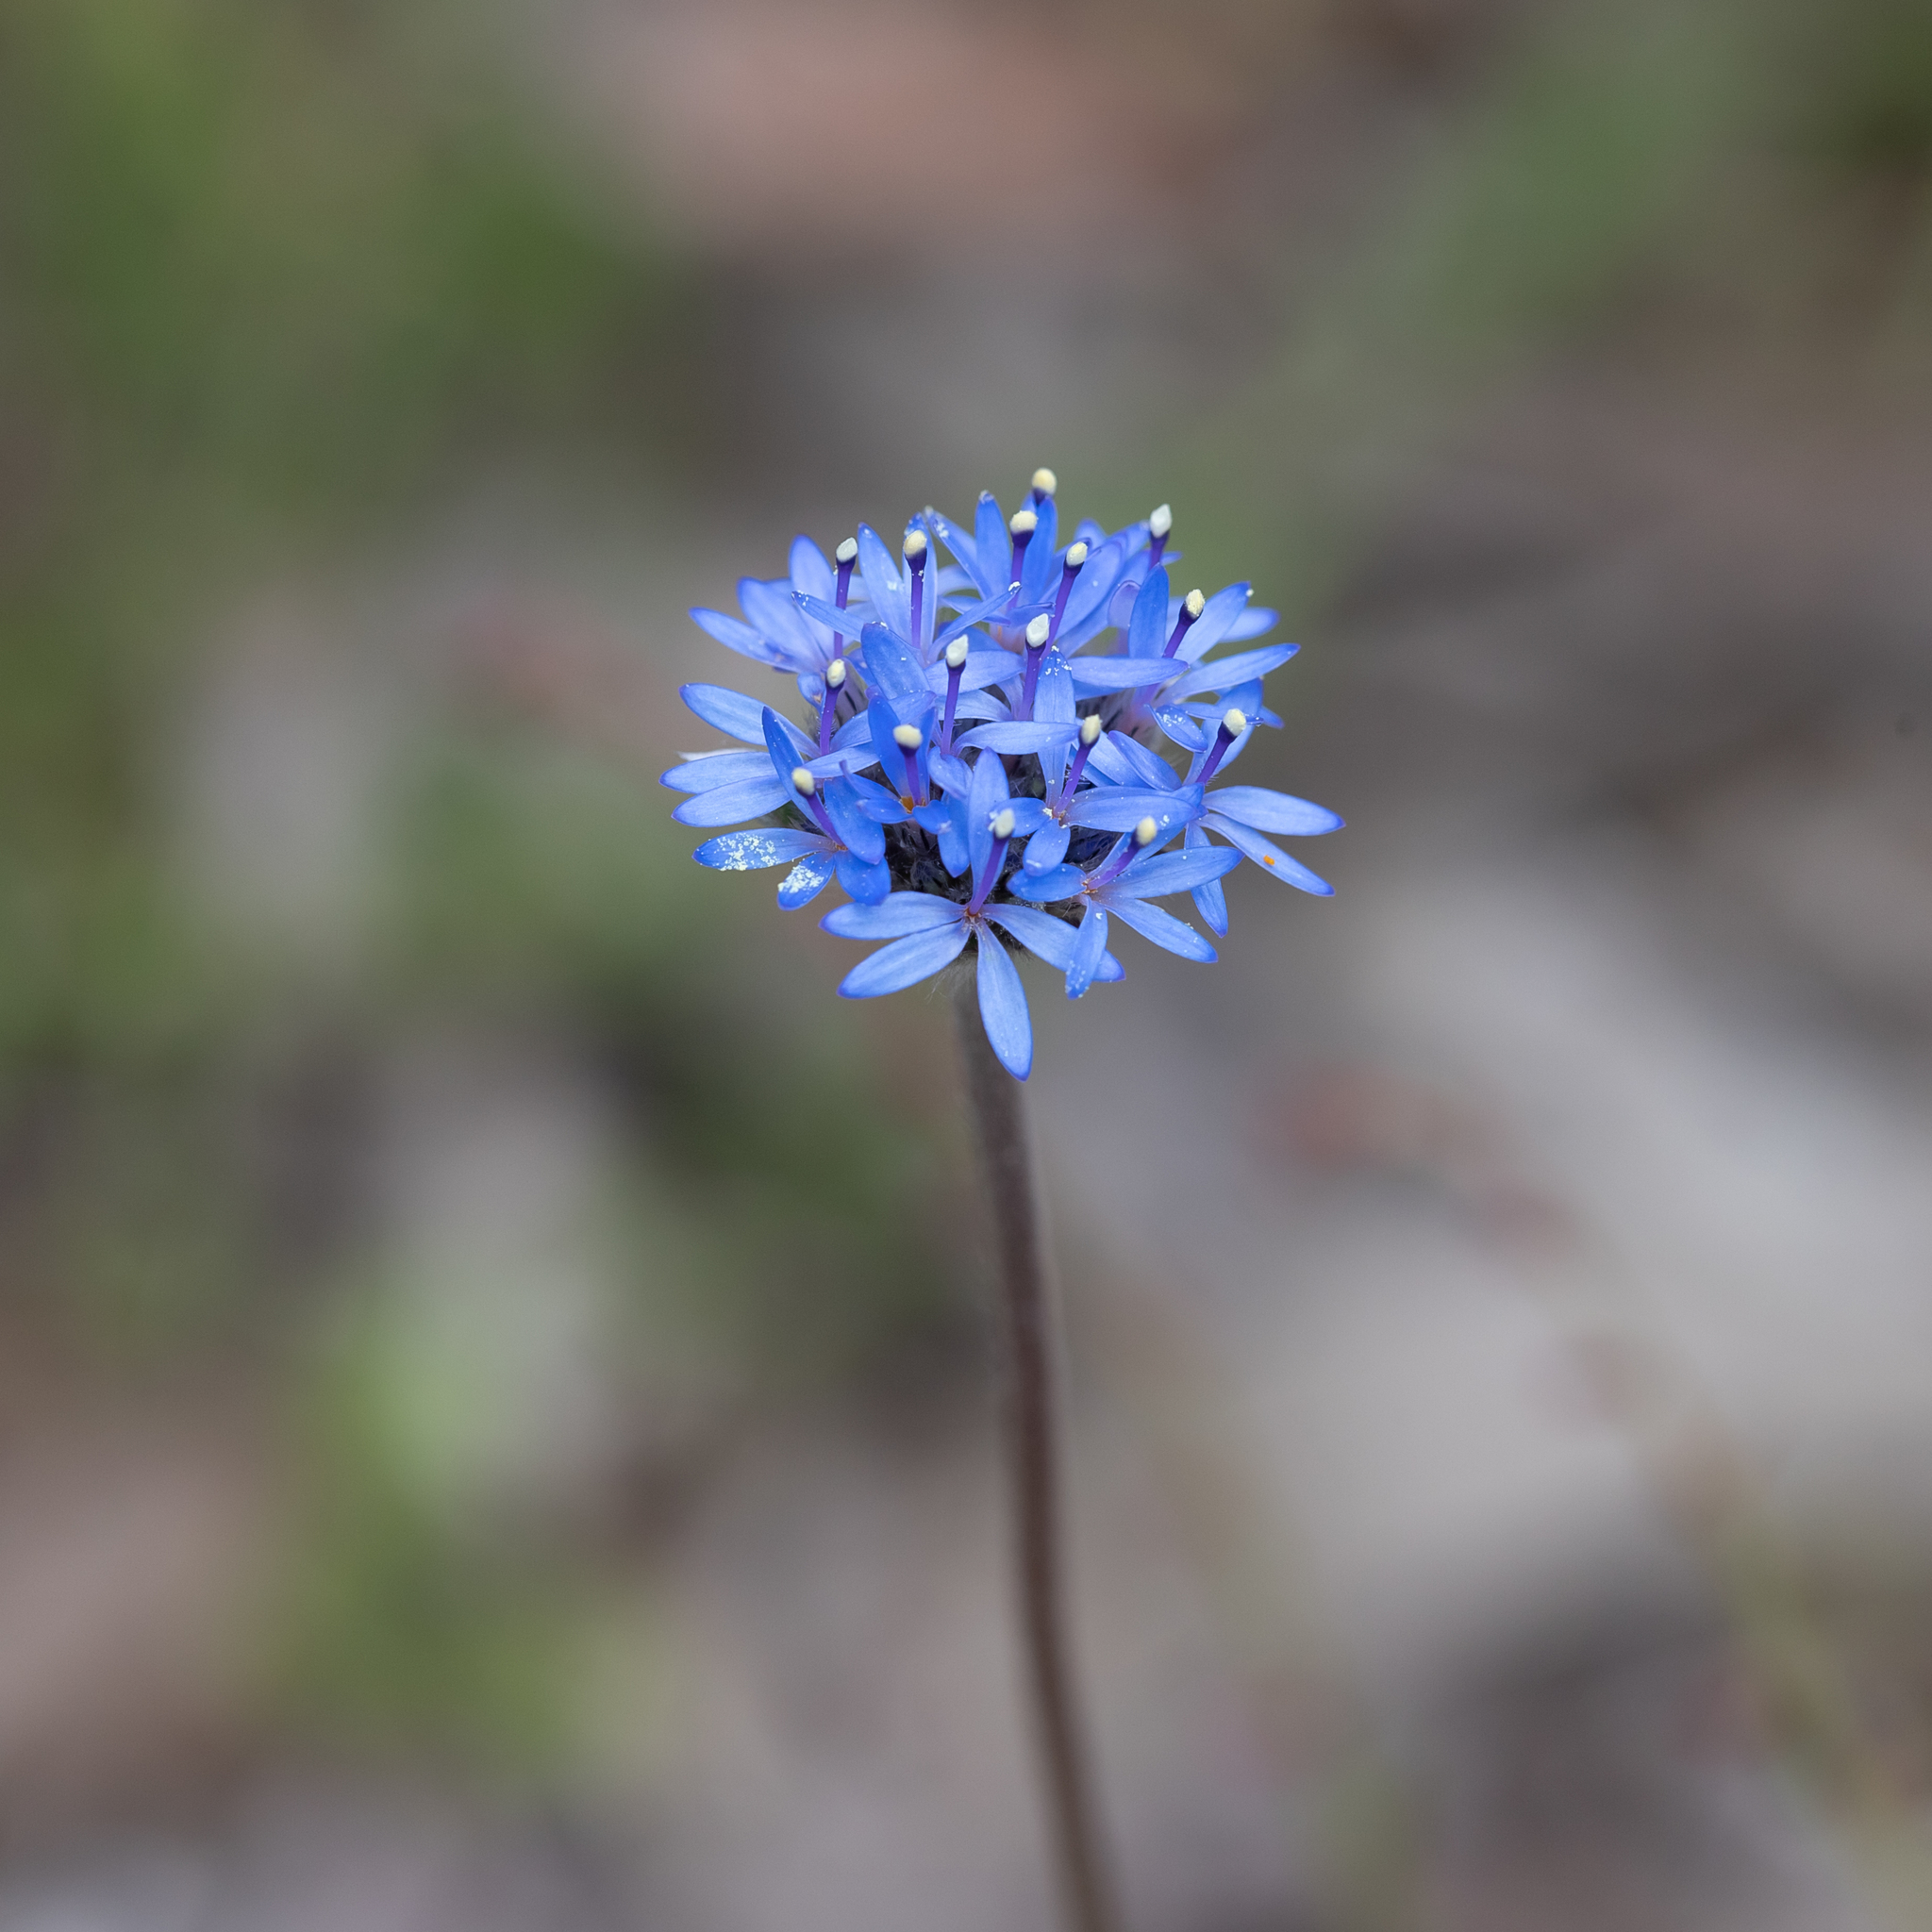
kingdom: Plantae
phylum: Tracheophyta
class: Magnoliopsida
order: Asterales
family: Goodeniaceae
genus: Brunonia
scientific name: Brunonia australis
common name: Blue pincushion
